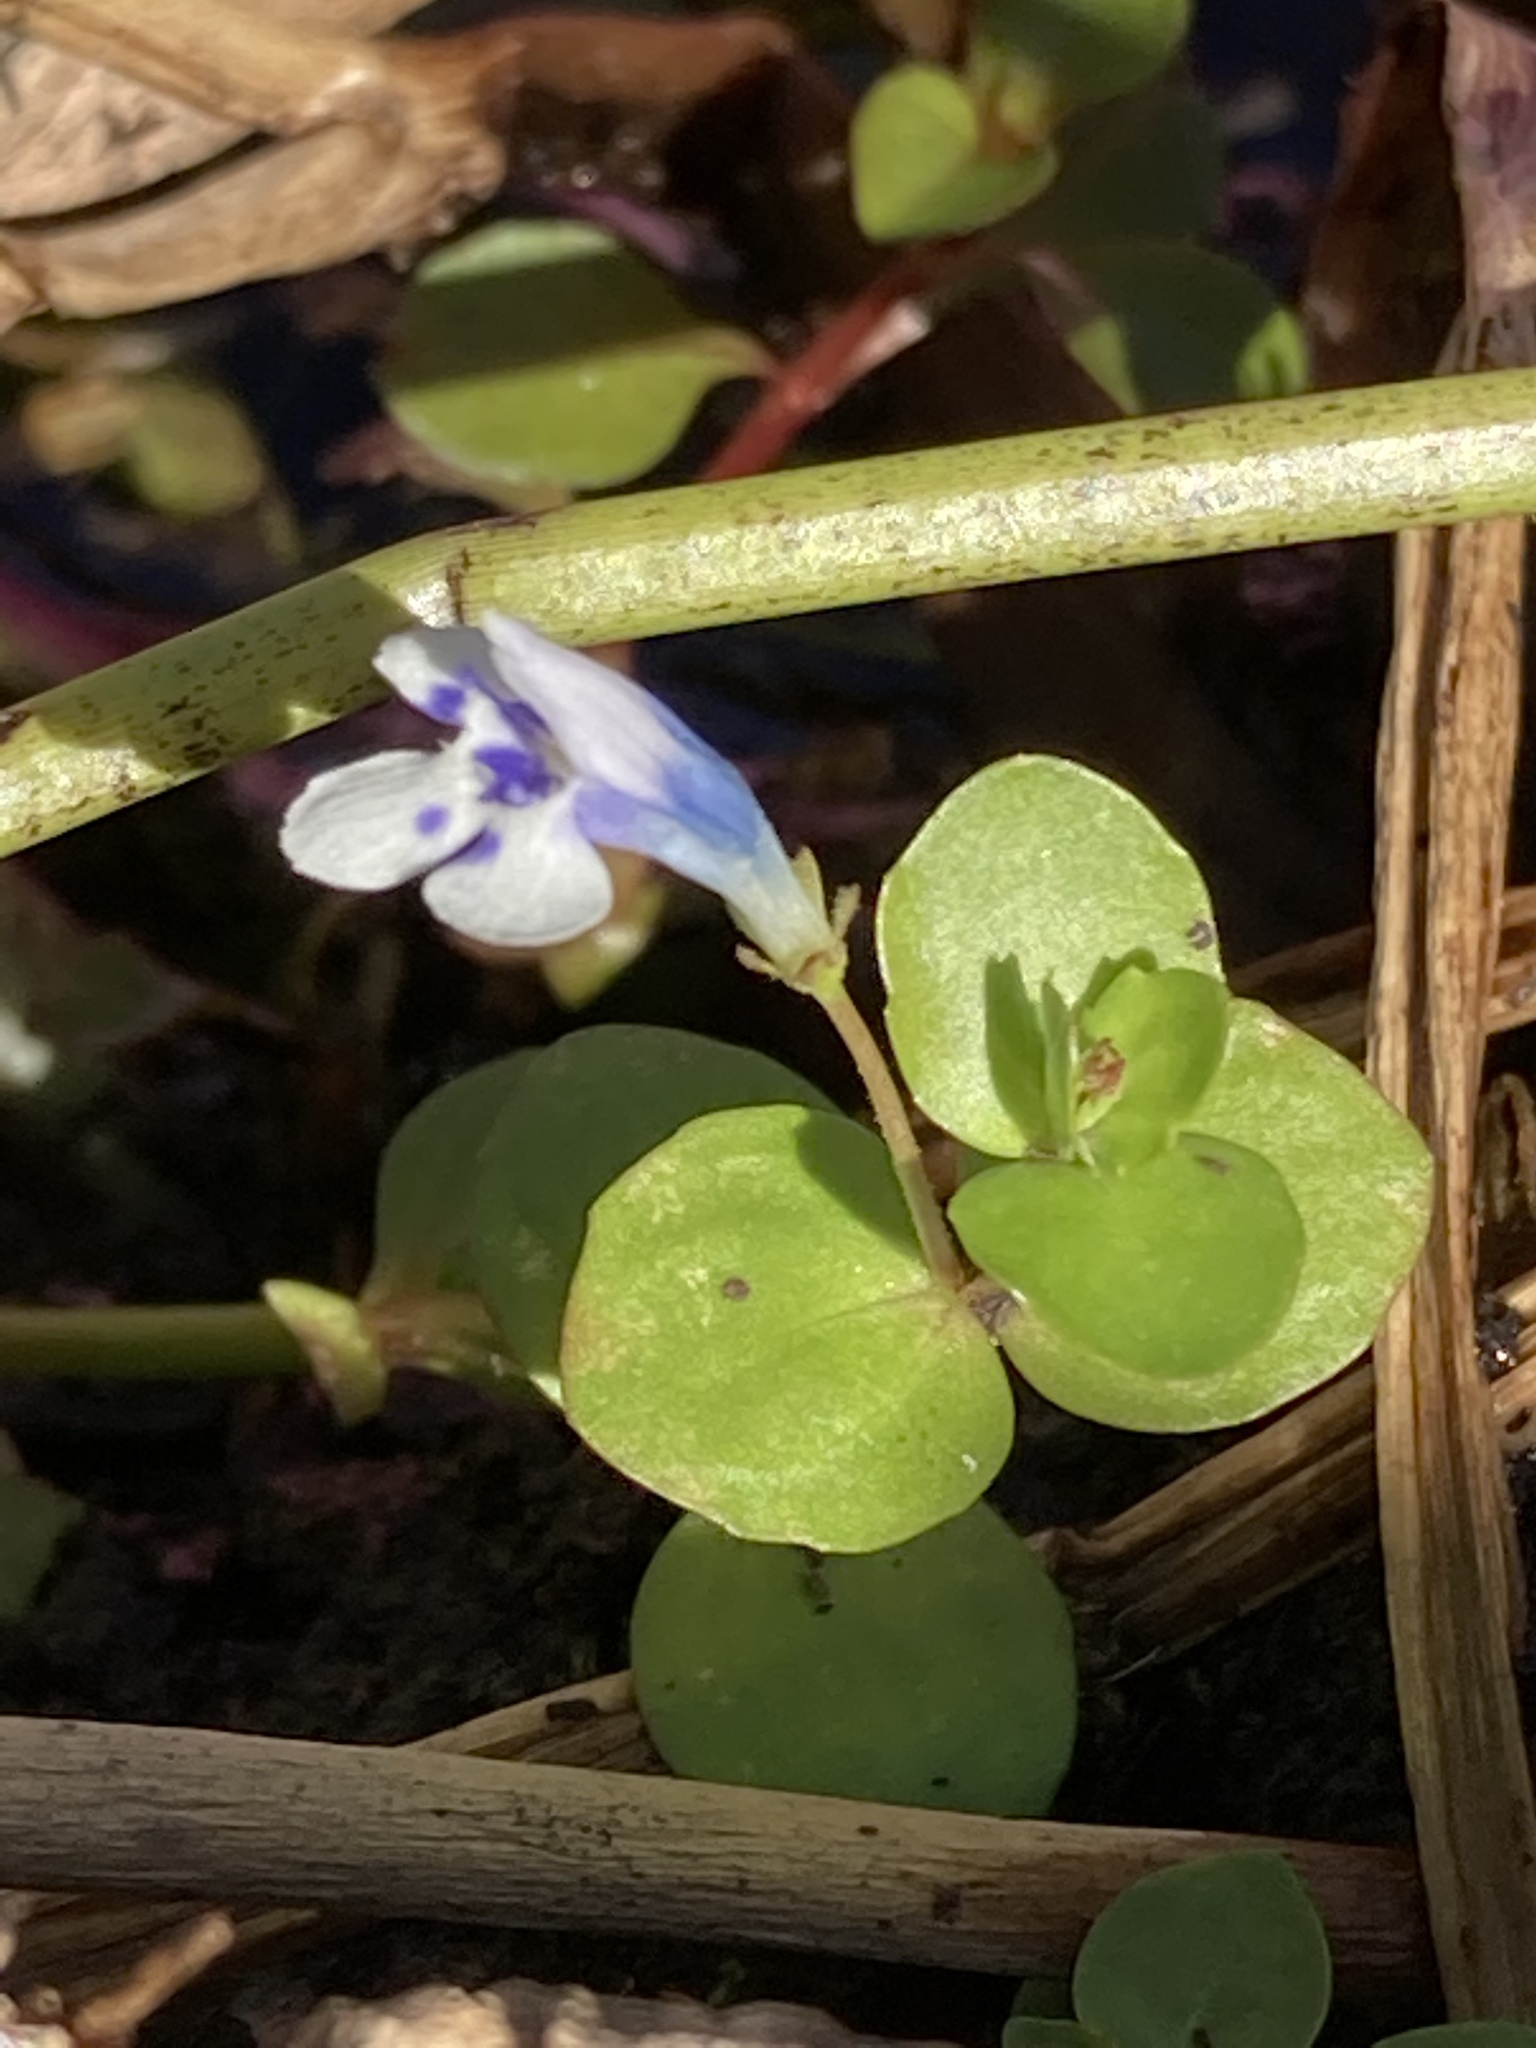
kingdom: Plantae
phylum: Tracheophyta
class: Magnoliopsida
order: Lamiales
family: Linderniaceae
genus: Lindernia
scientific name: Lindernia rotundifolia
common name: Baby’s tears
